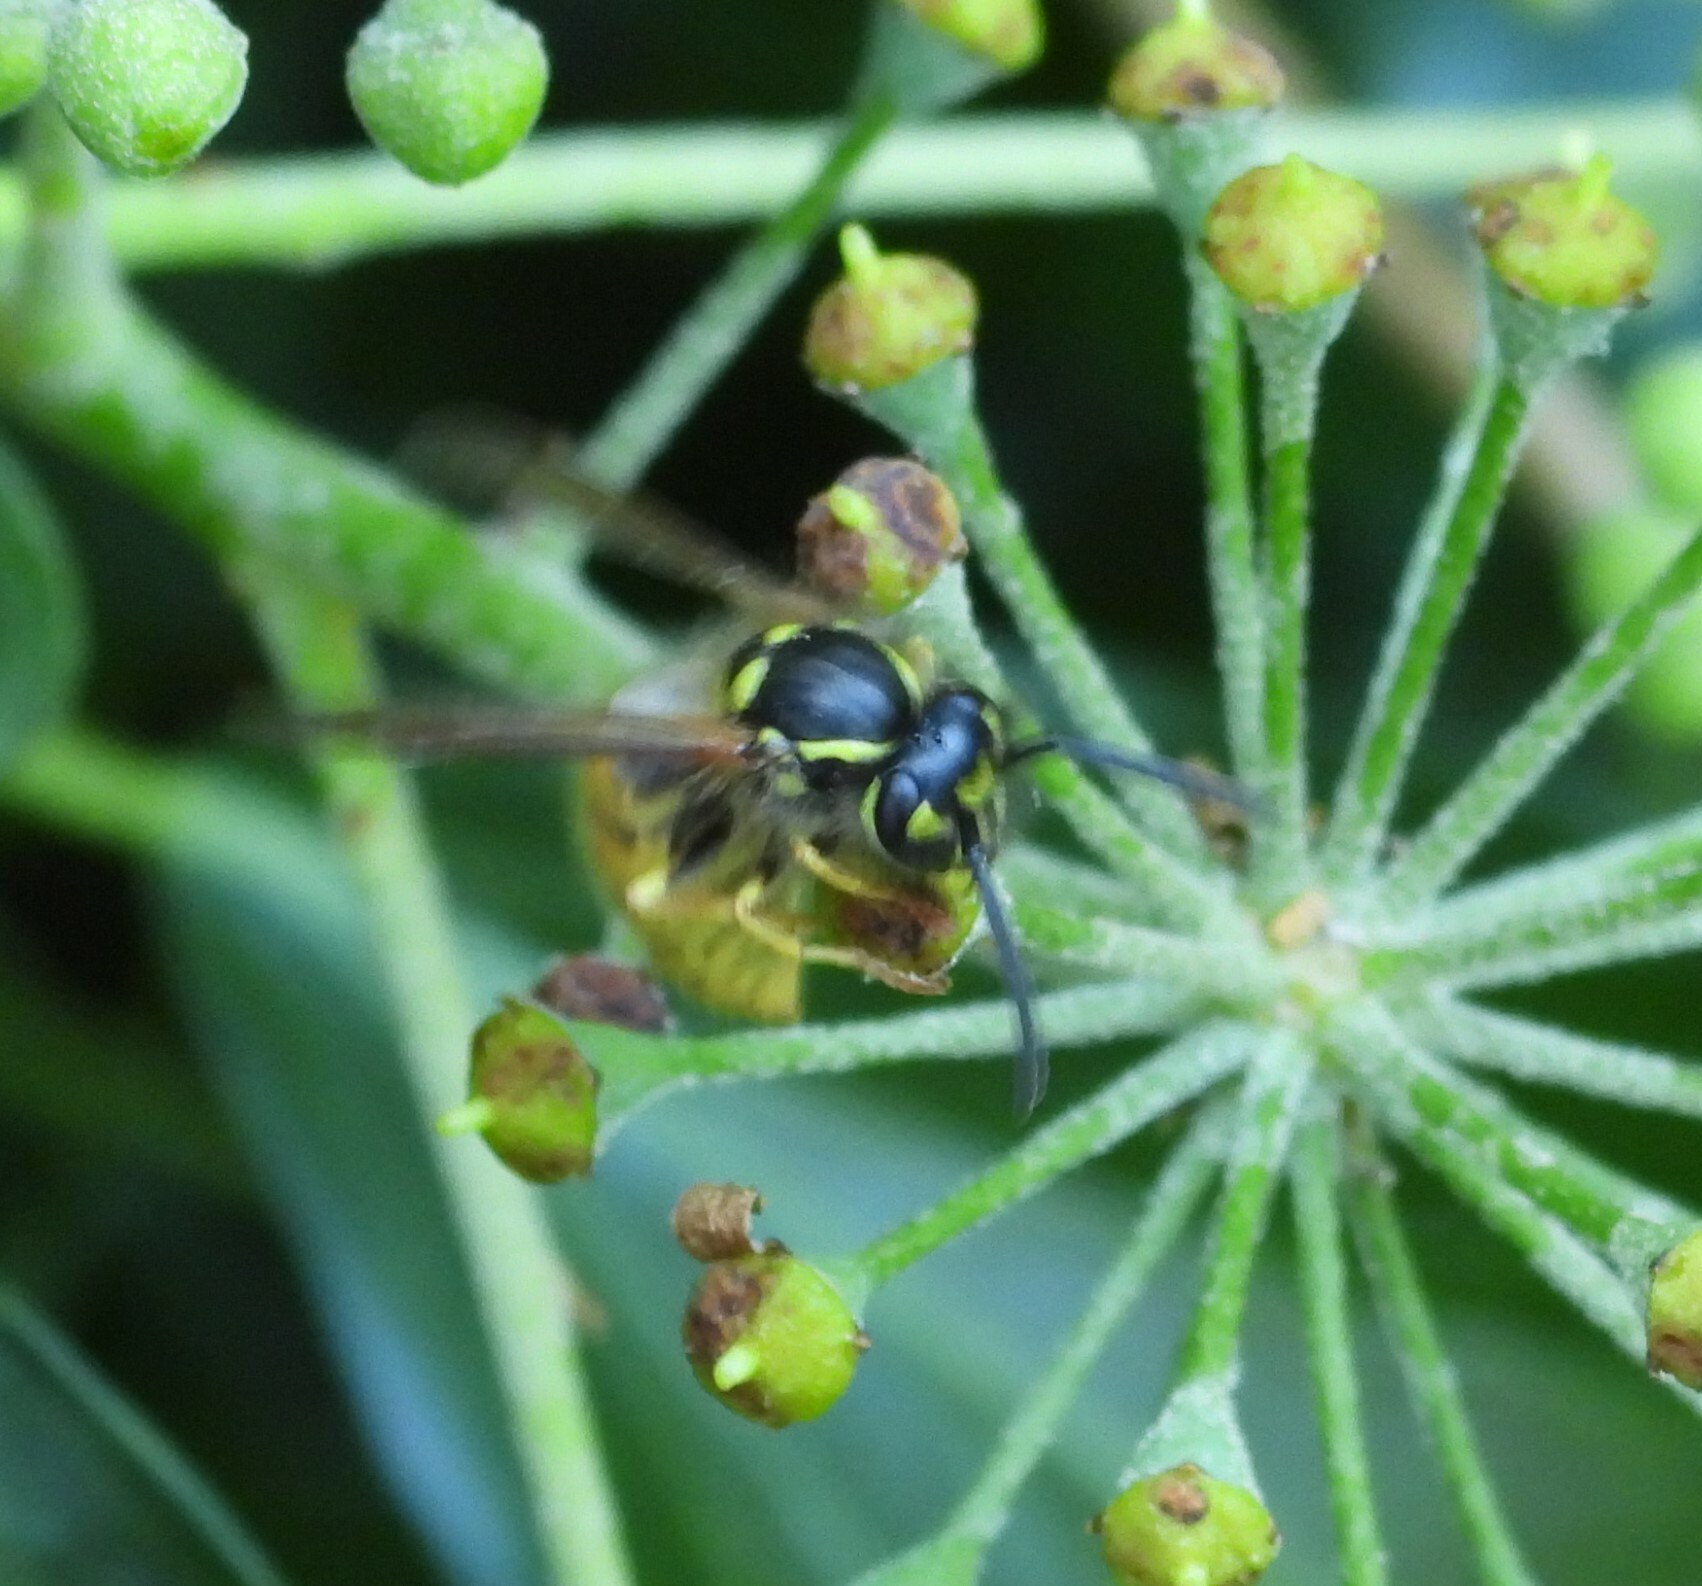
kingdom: Animalia
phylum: Arthropoda
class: Insecta
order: Hymenoptera
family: Vespidae
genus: Vespula
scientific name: Vespula vulgaris
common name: Common wasp
